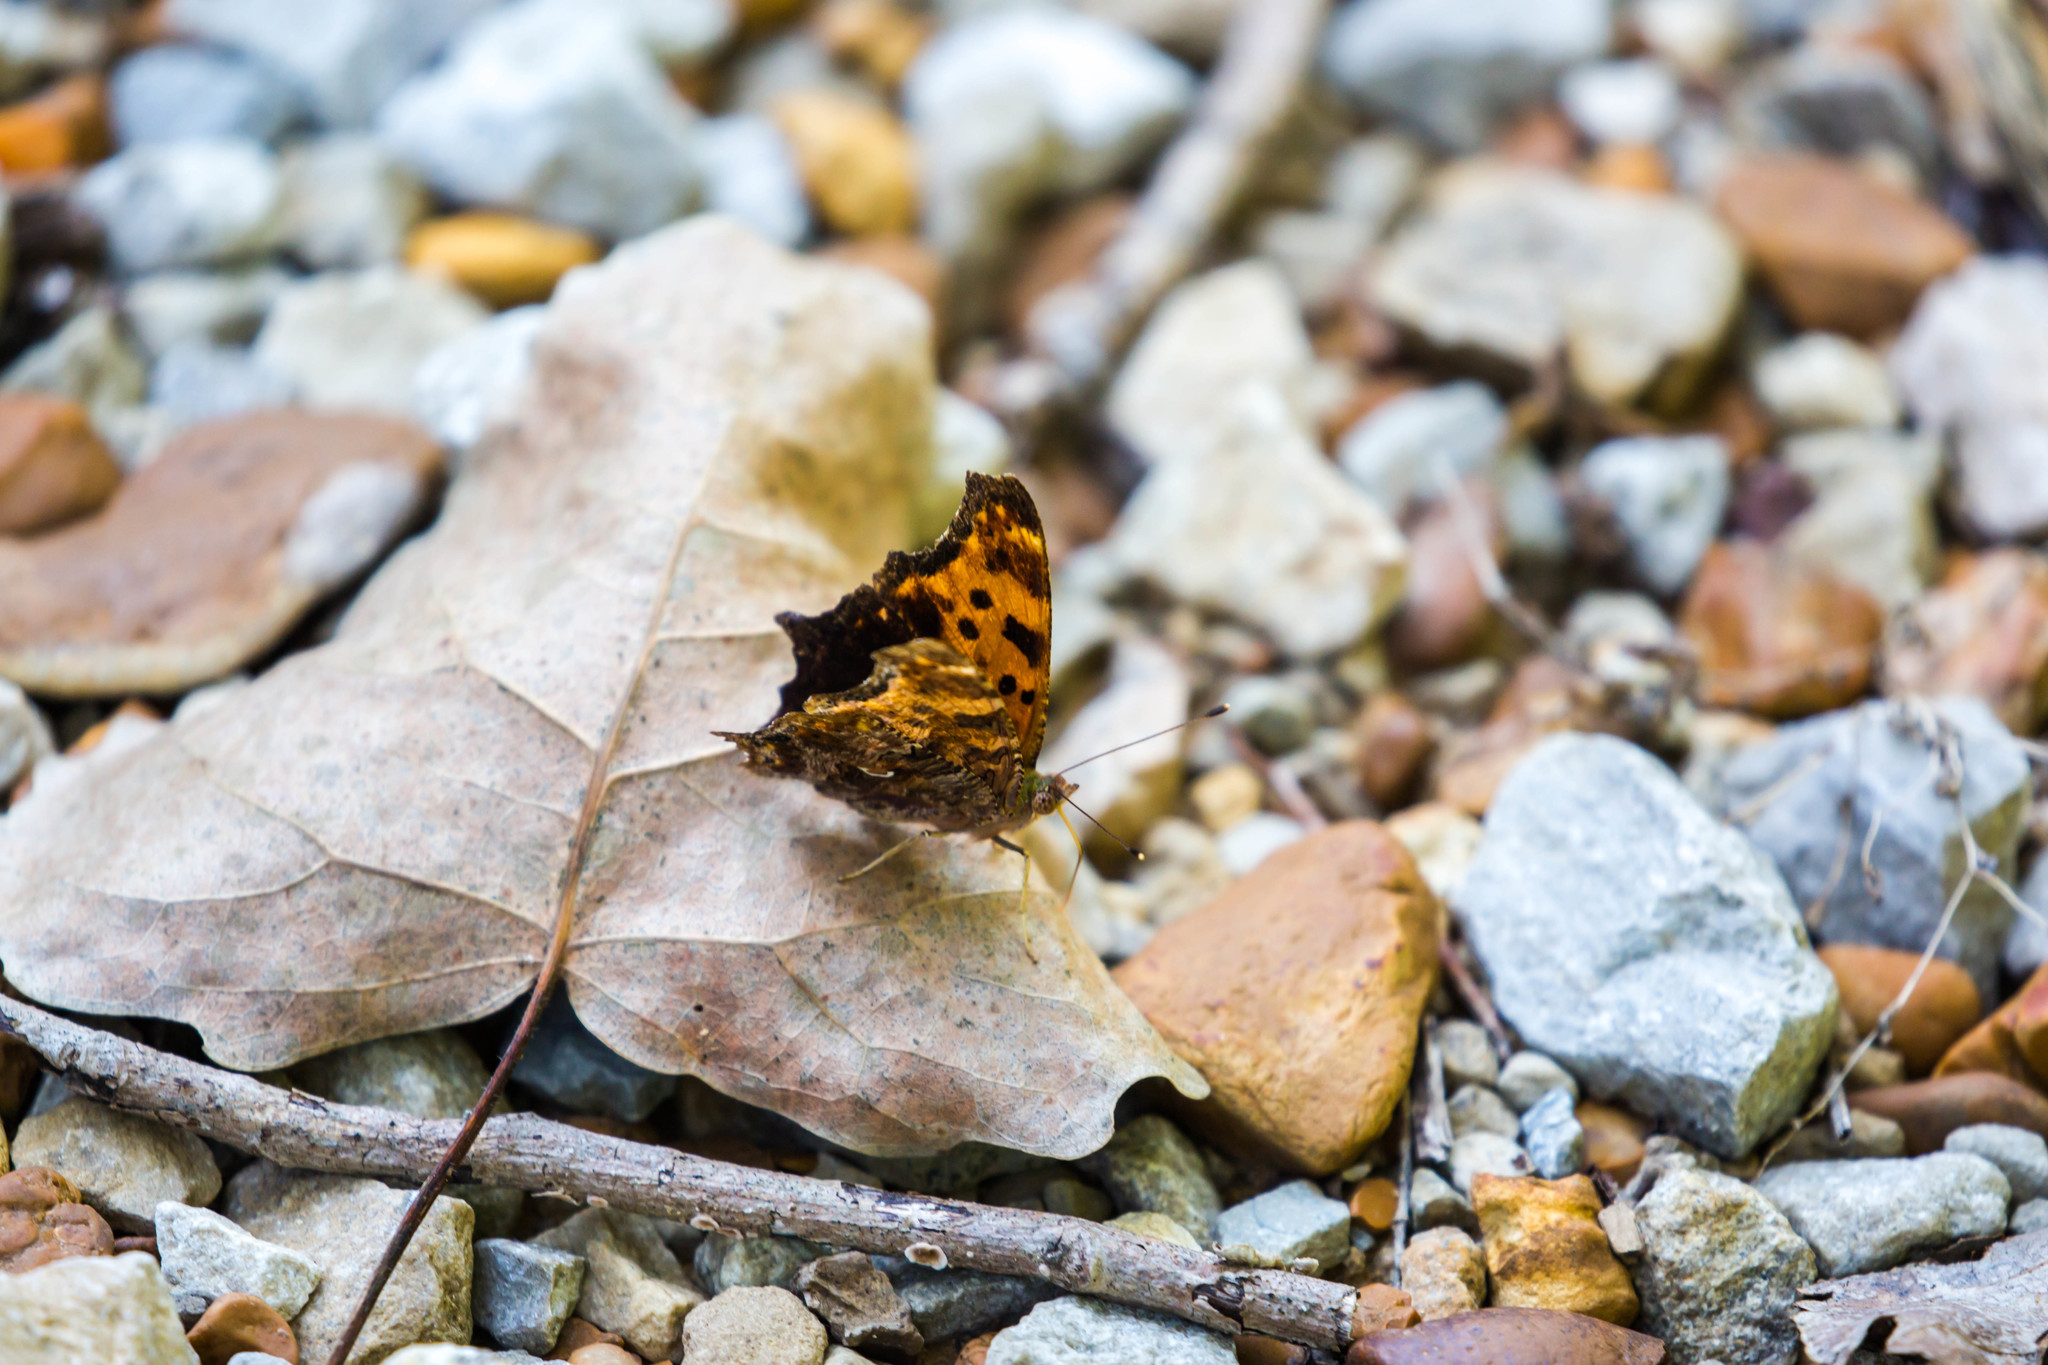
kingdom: Animalia
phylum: Arthropoda
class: Insecta
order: Lepidoptera
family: Nymphalidae
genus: Polygonia
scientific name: Polygonia comma
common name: Eastern comma
